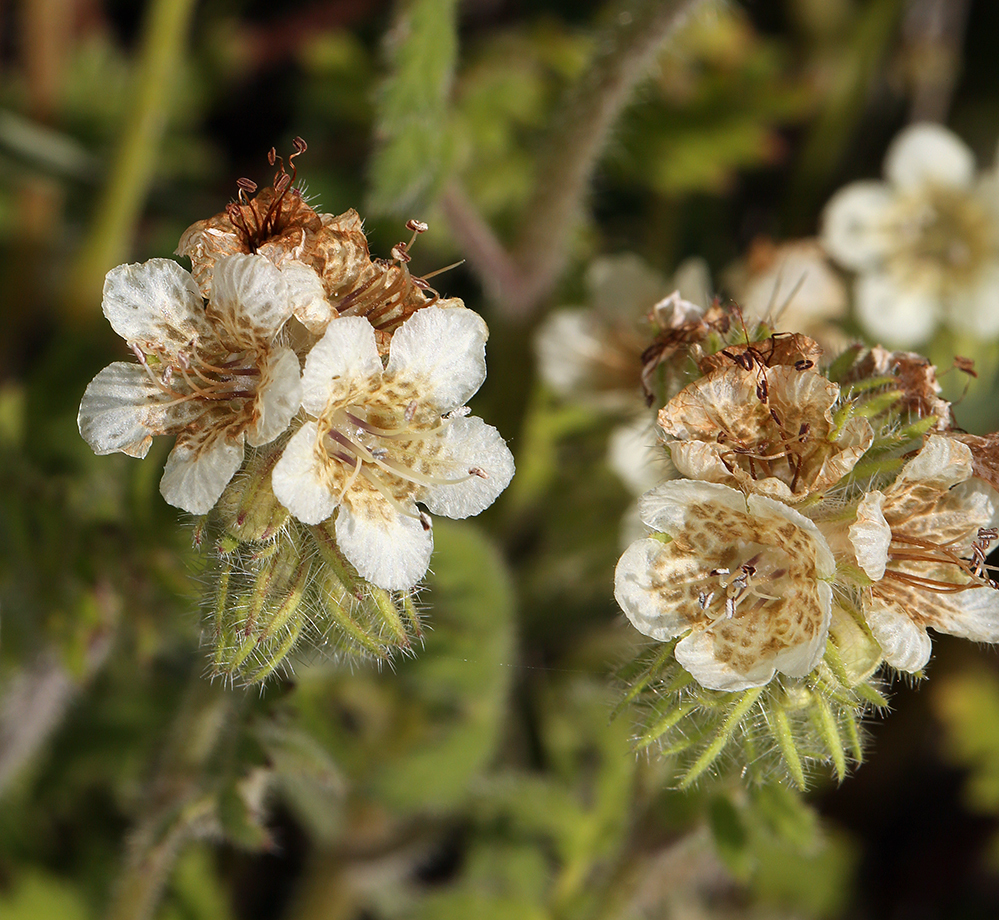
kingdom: Plantae
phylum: Tracheophyta
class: Magnoliopsida
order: Boraginales
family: Hydrophyllaceae
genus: Phacelia
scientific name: Phacelia cicutaria
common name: Caterpillar phacelia
